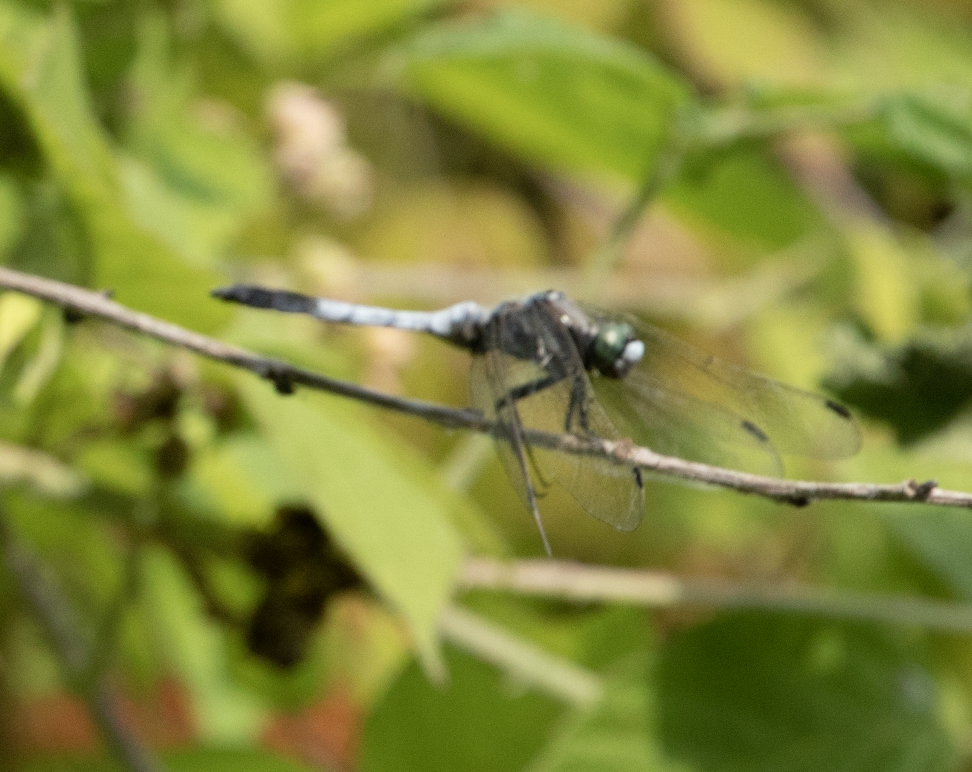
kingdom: Animalia
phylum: Arthropoda
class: Insecta
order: Odonata
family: Libellulidae
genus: Orthetrum
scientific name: Orthetrum albistylum
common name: White-tailed skimmer
